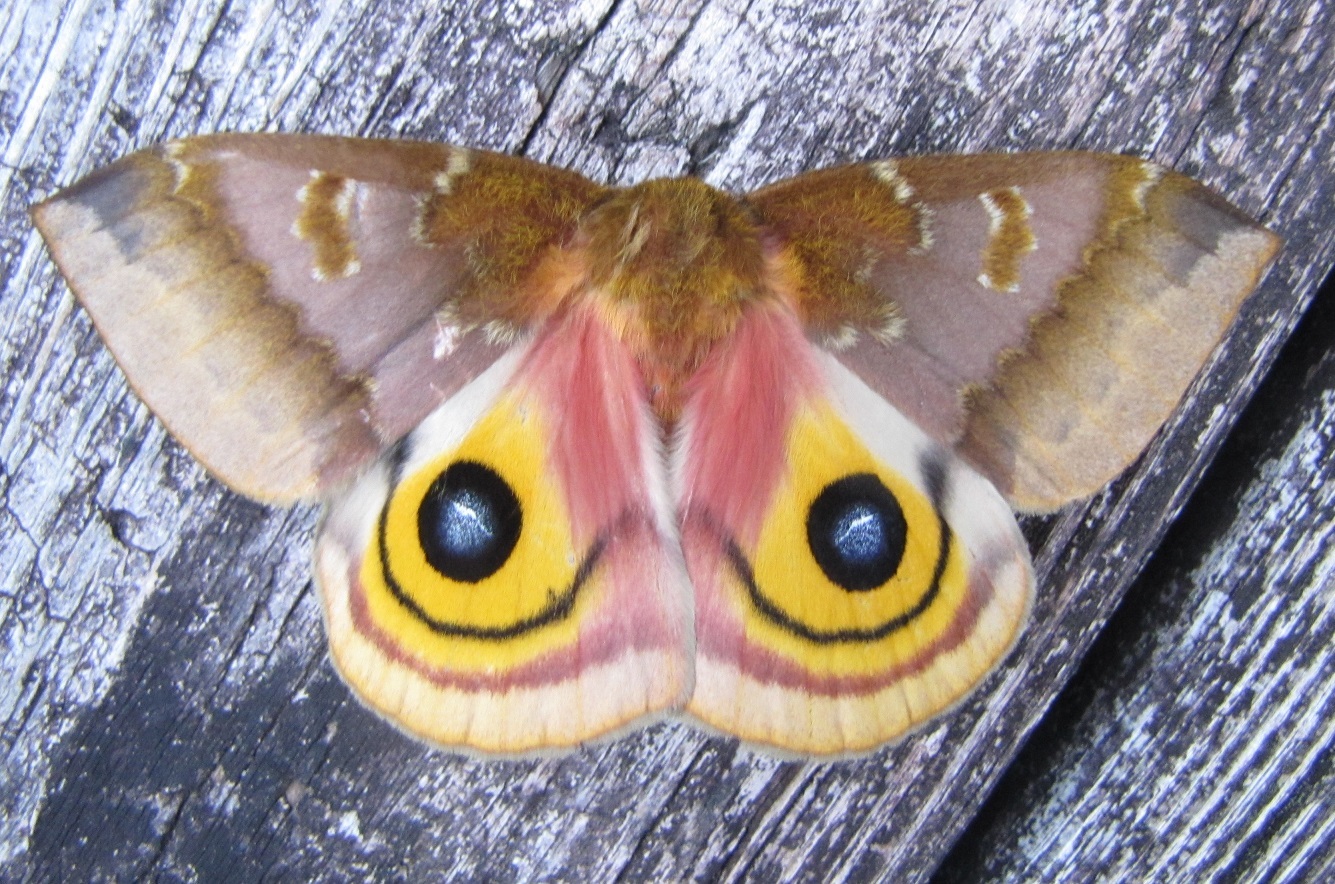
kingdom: Animalia
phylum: Arthropoda
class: Insecta
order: Lepidoptera
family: Saturniidae
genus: Automeris
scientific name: Automeris io
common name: Io moth
